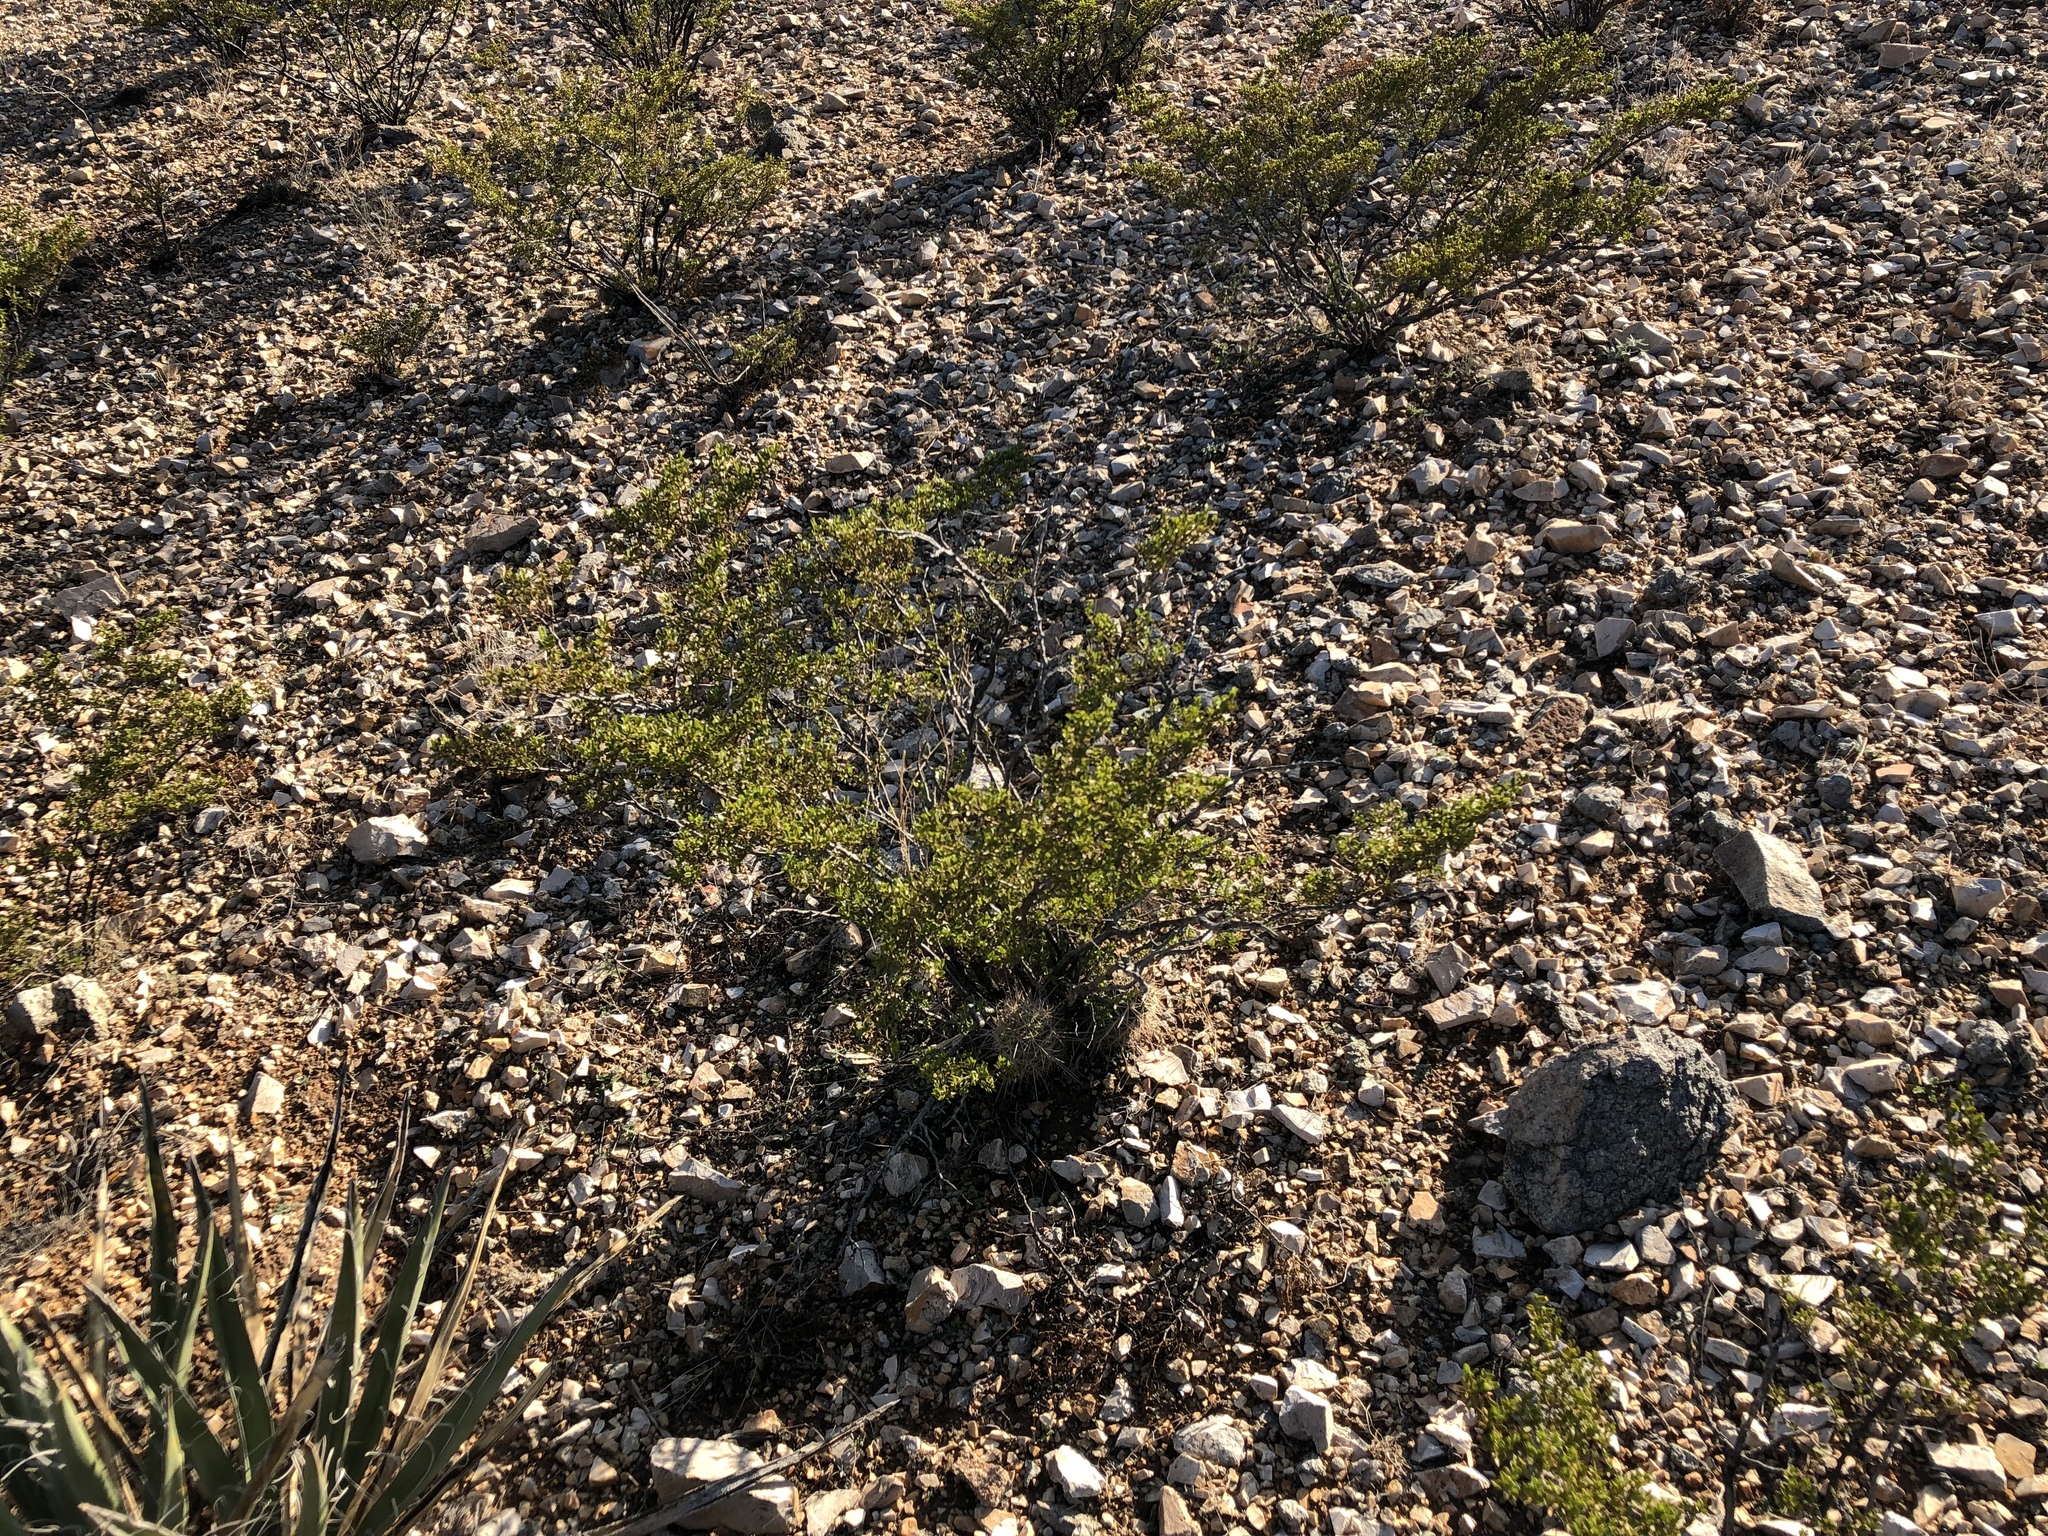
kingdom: Plantae
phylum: Tracheophyta
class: Magnoliopsida
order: Zygophyllales
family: Zygophyllaceae
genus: Larrea
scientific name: Larrea tridentata
